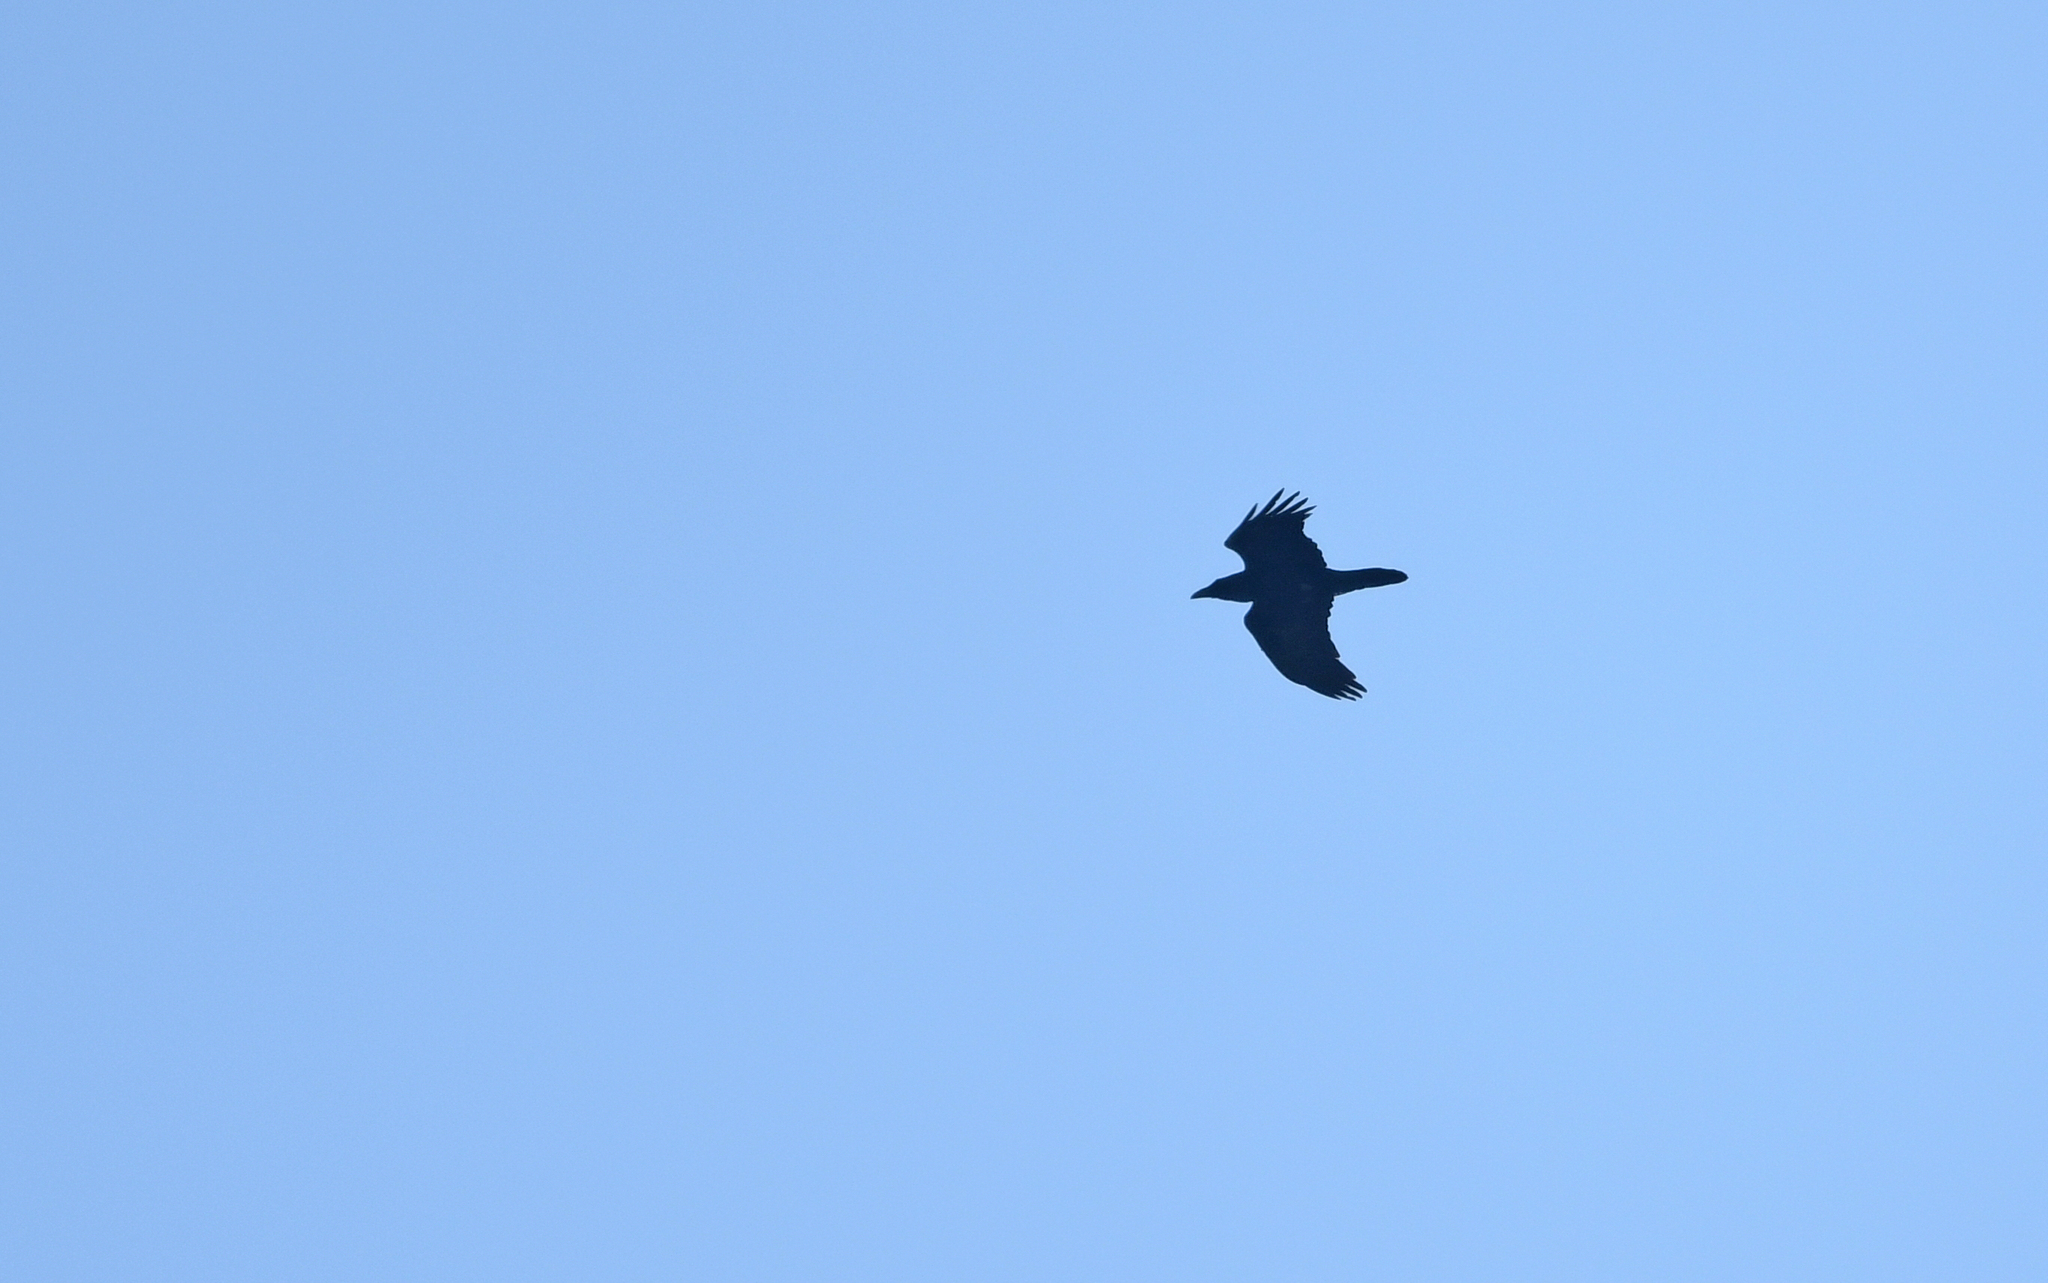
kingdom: Animalia
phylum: Chordata
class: Aves
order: Passeriformes
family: Corvidae
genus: Corvus
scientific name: Corvus corax
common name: Common raven
